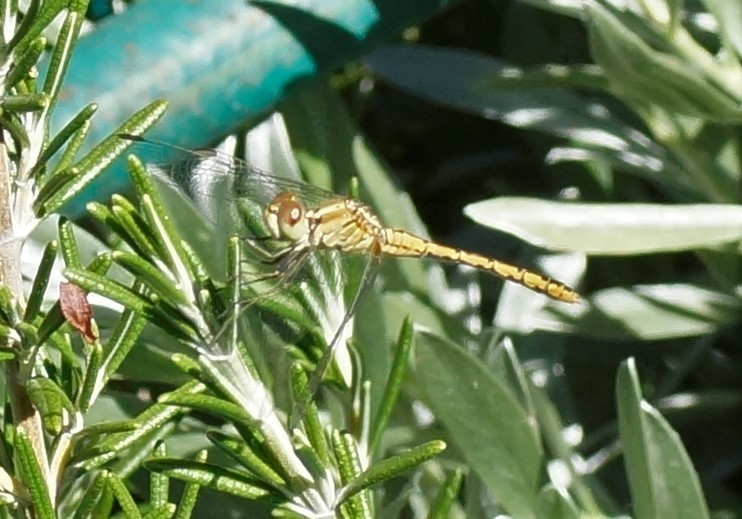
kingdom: Animalia
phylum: Arthropoda
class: Insecta
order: Odonata
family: Libellulidae
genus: Diplacodes
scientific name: Diplacodes bipunctata
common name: Red percher dragonfly
